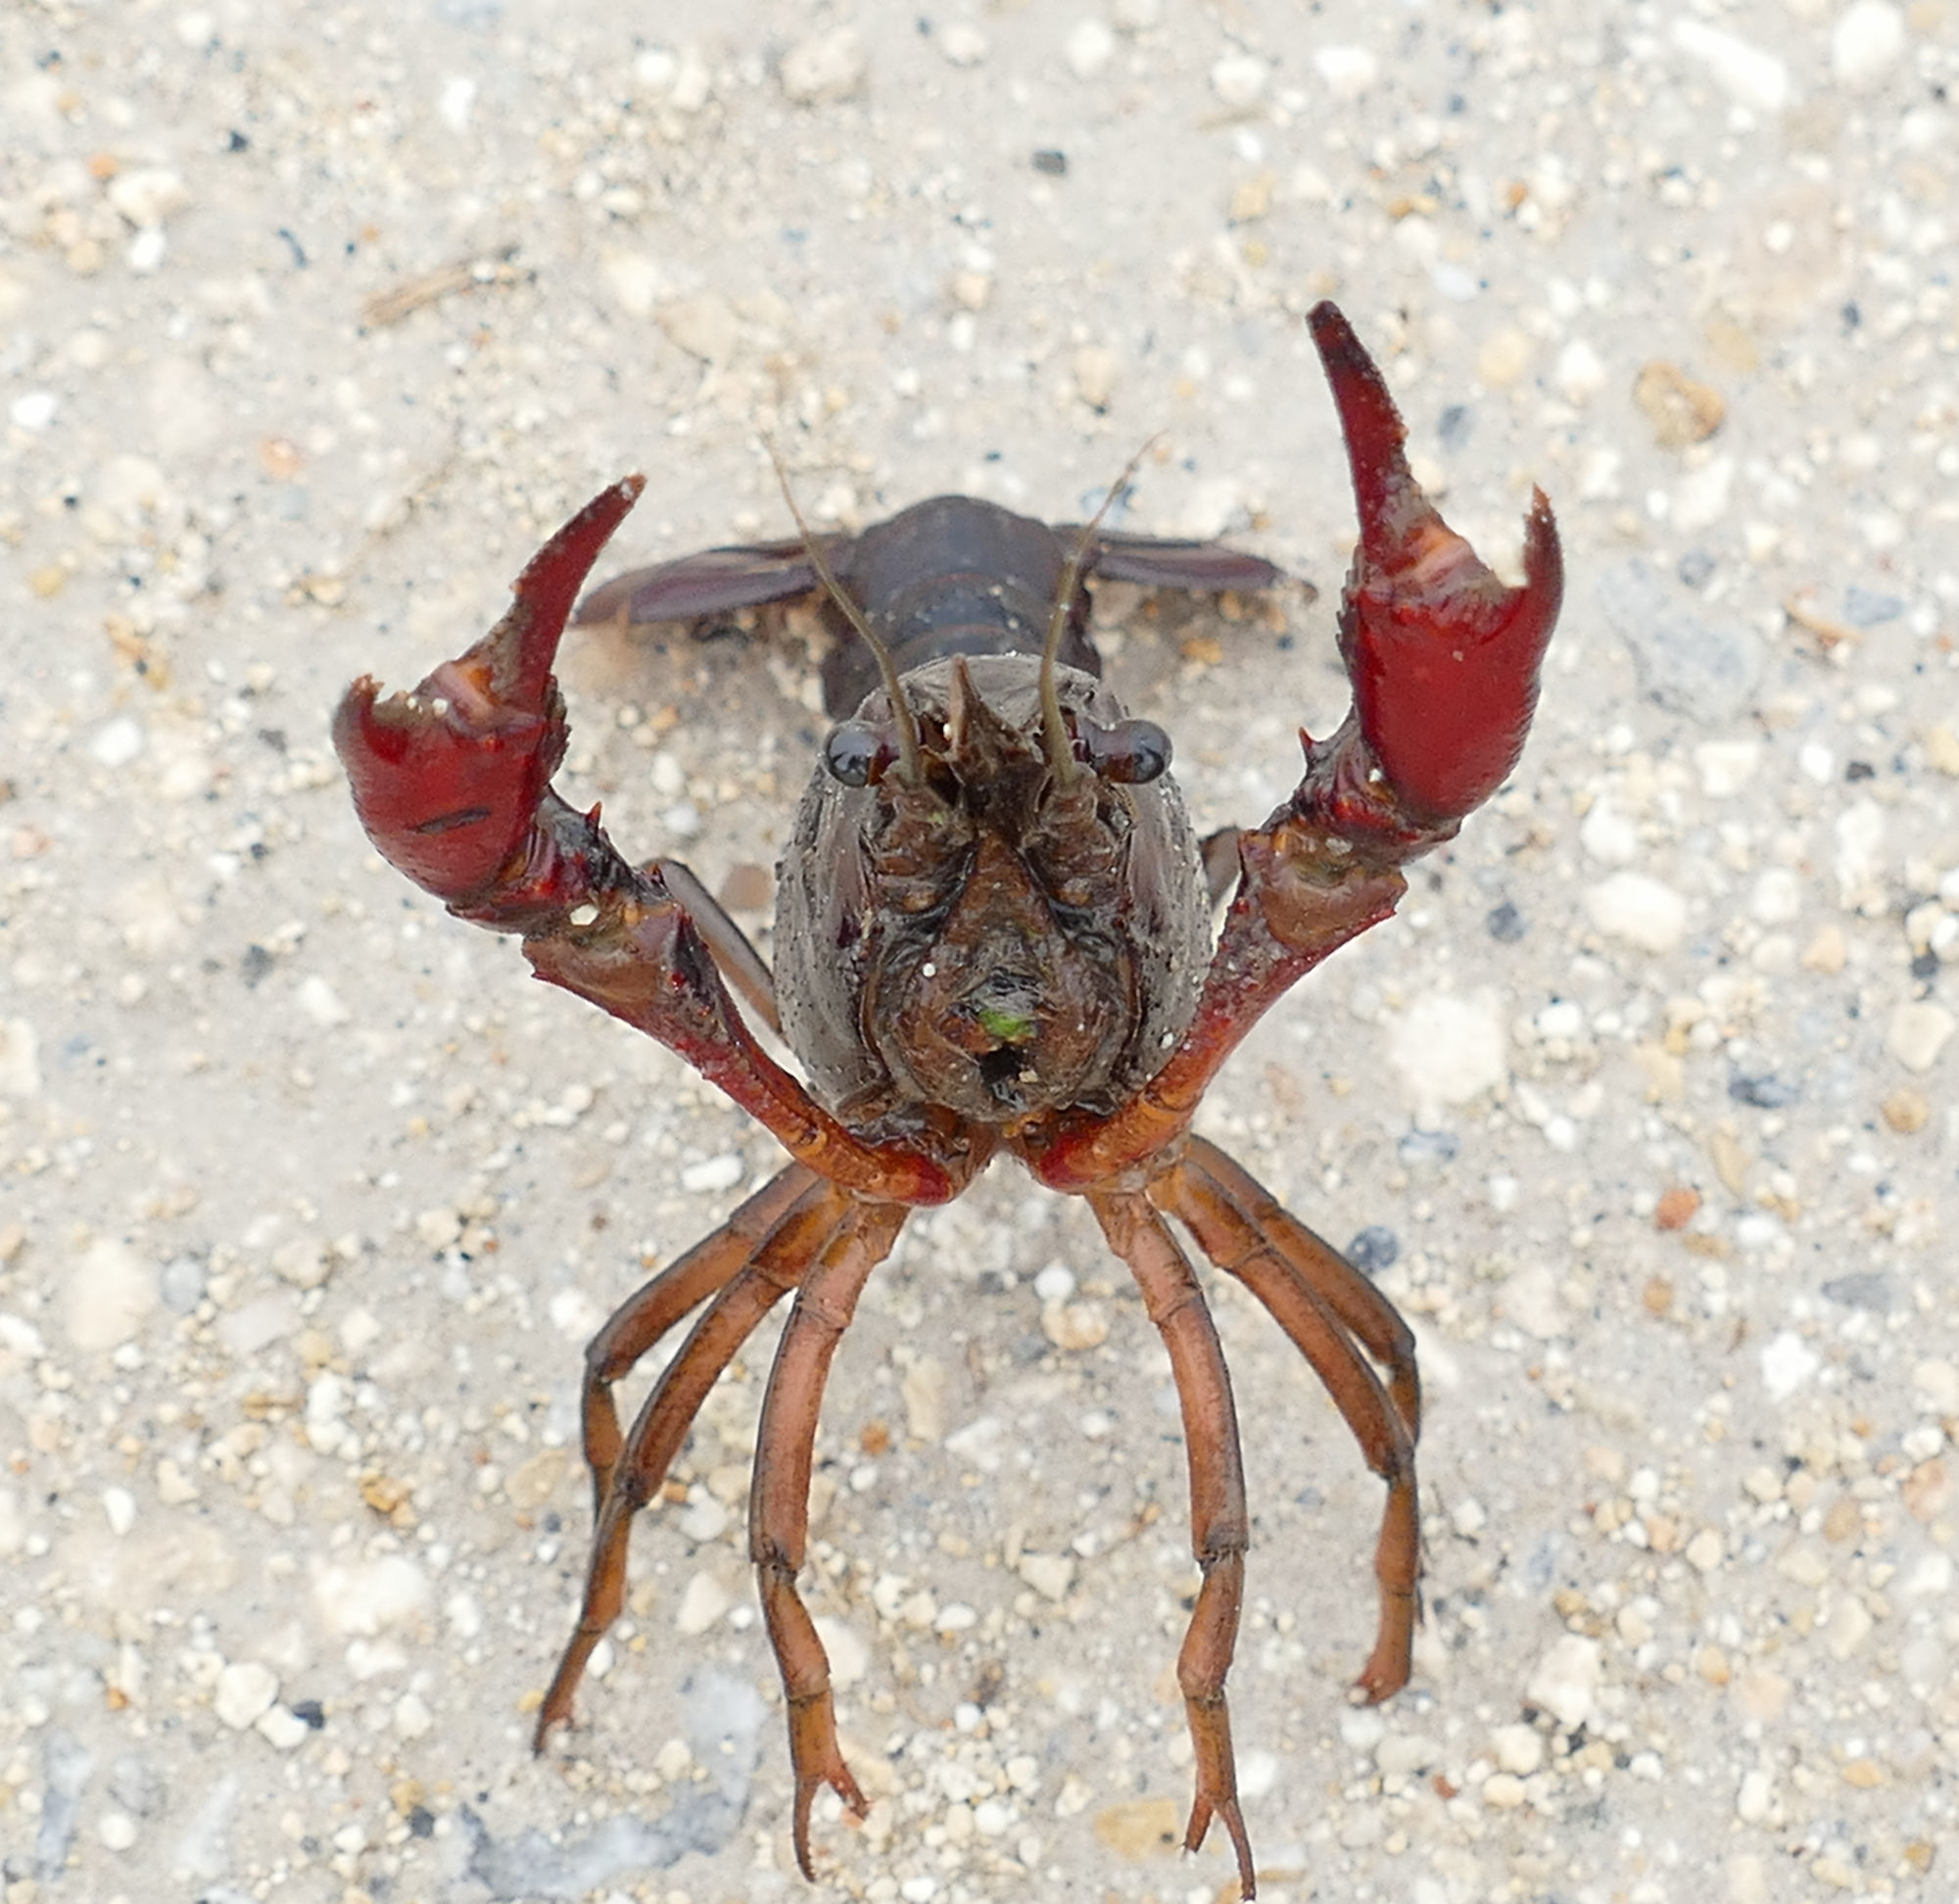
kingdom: Animalia
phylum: Arthropoda
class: Malacostraca
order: Decapoda
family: Cambaridae
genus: Procambarus
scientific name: Procambarus clarkii
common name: Red swamp crayfish
